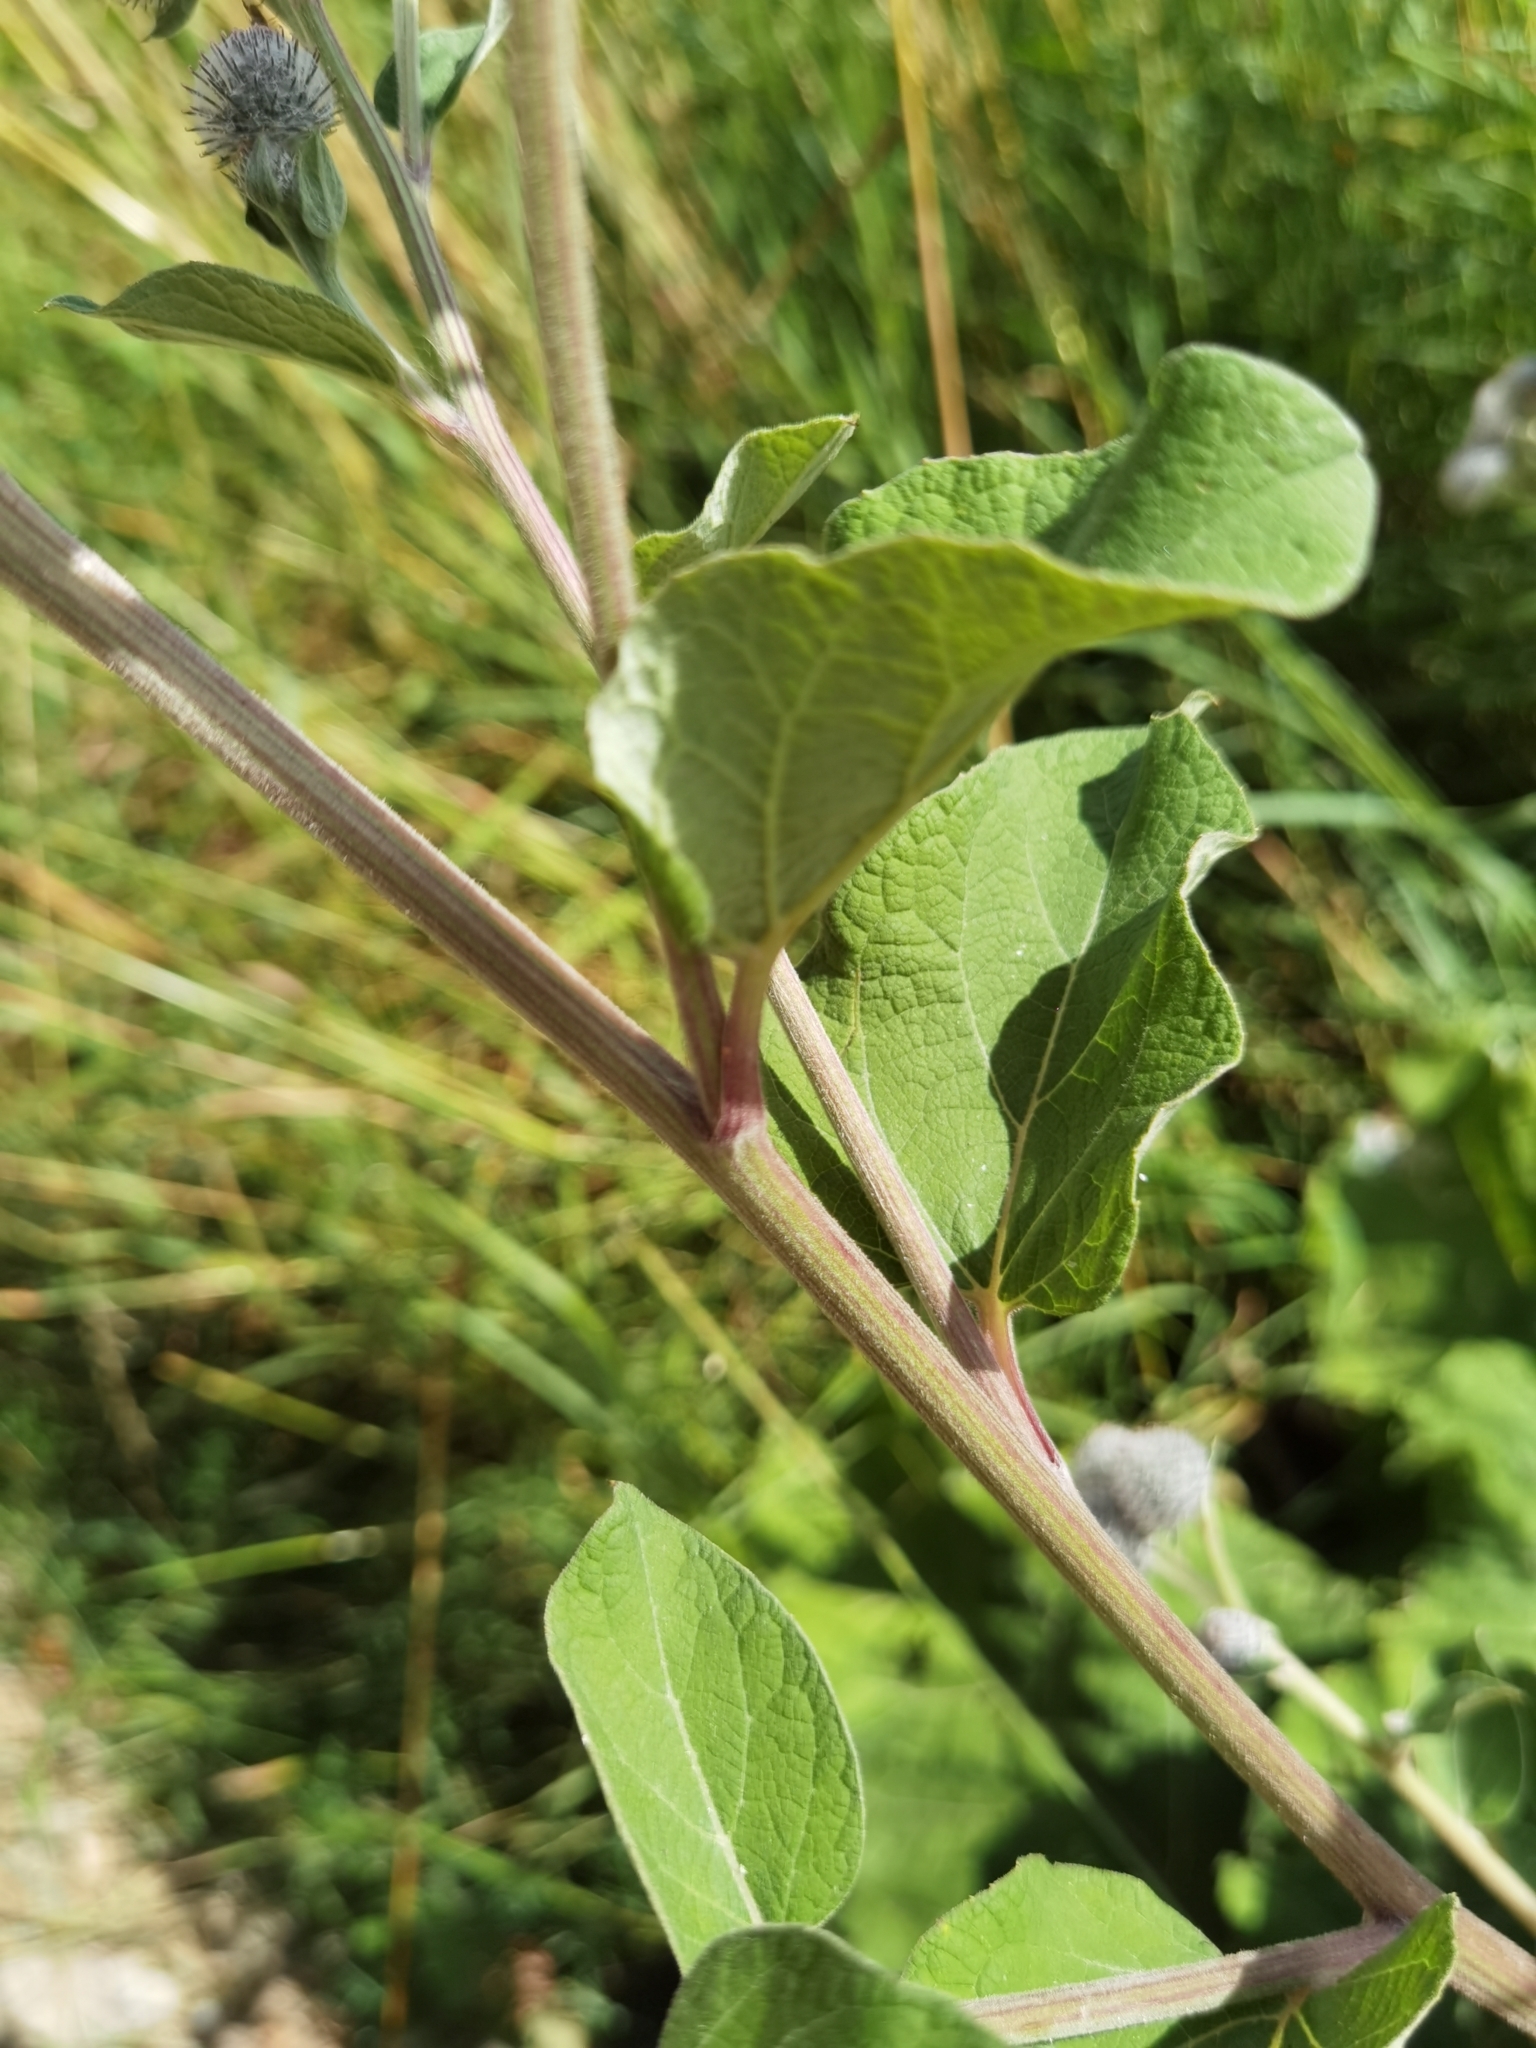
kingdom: Plantae
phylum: Tracheophyta
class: Magnoliopsida
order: Asterales
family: Asteraceae
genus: Arctium
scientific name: Arctium tomentosum
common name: Woolly burdock
